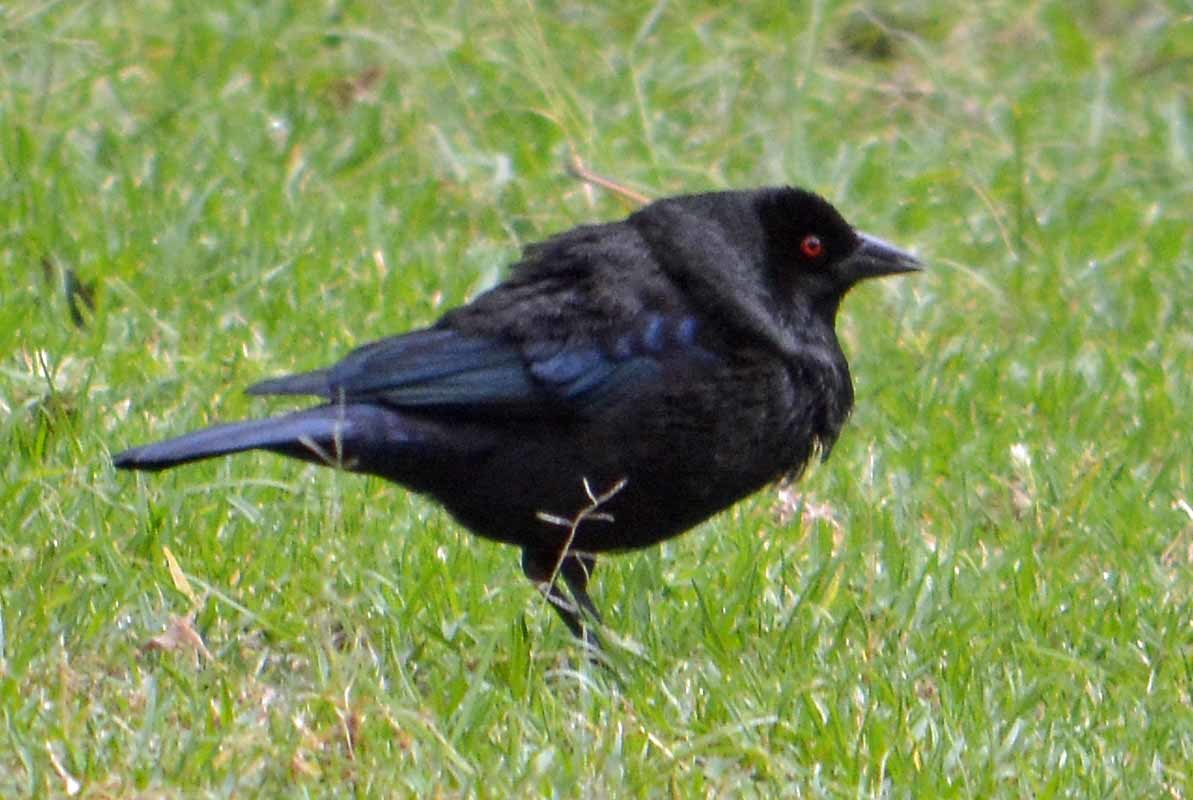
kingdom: Animalia
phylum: Chordata
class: Aves
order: Passeriformes
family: Icteridae
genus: Molothrus
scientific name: Molothrus aeneus
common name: Bronzed cowbird
